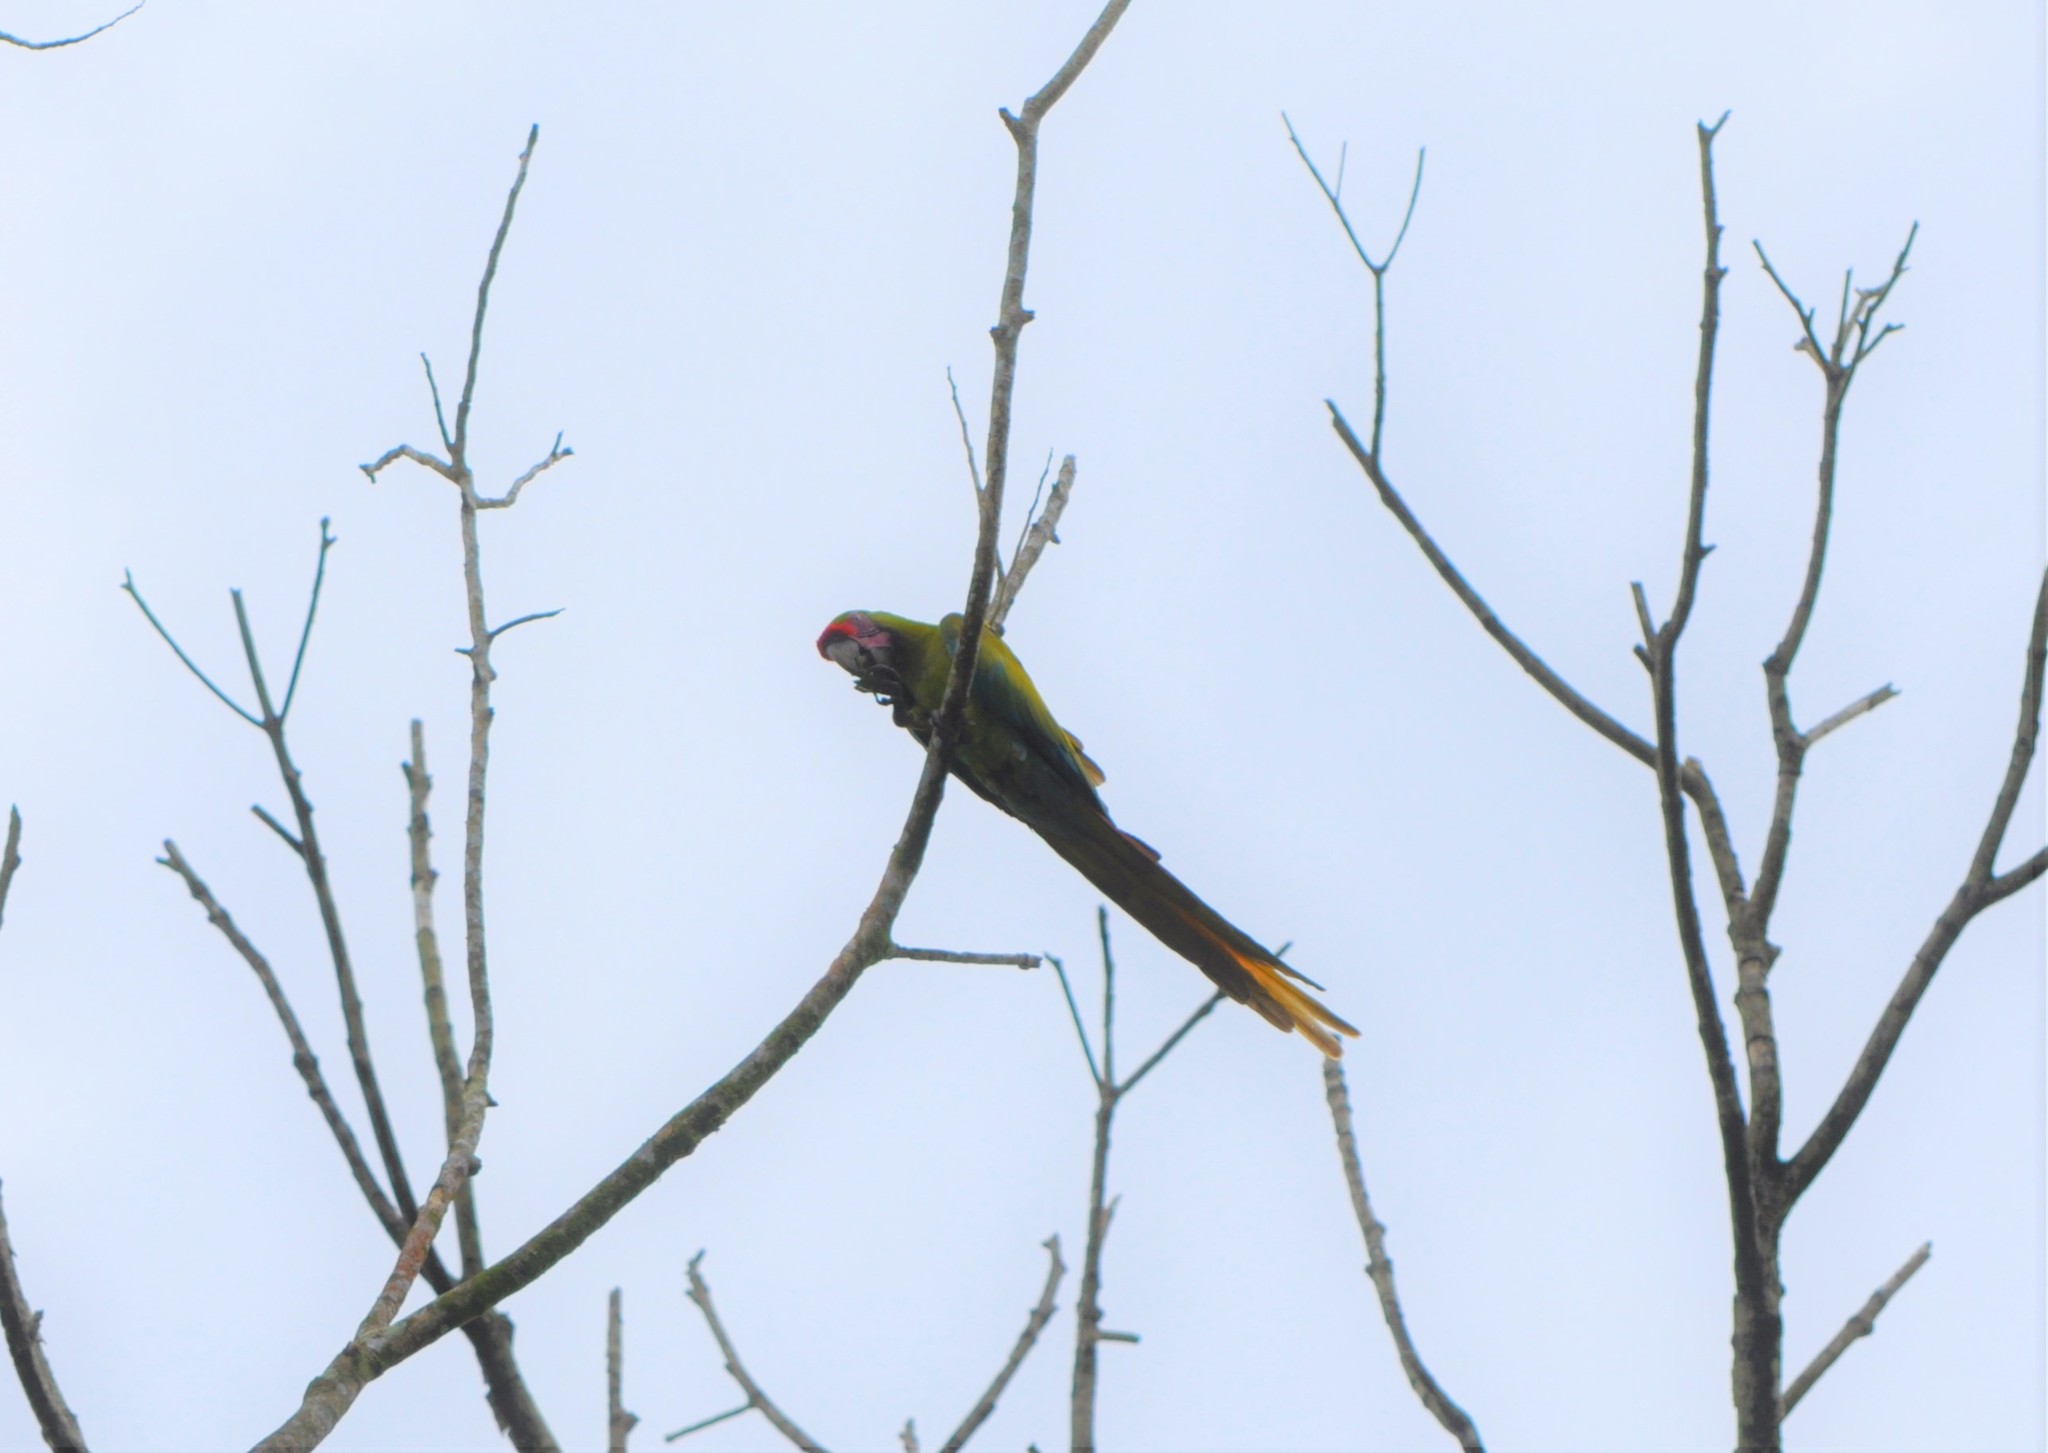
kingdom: Animalia
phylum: Chordata
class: Aves
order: Psittaciformes
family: Psittacidae
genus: Ara
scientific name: Ara ambiguus
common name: Great green macaw
